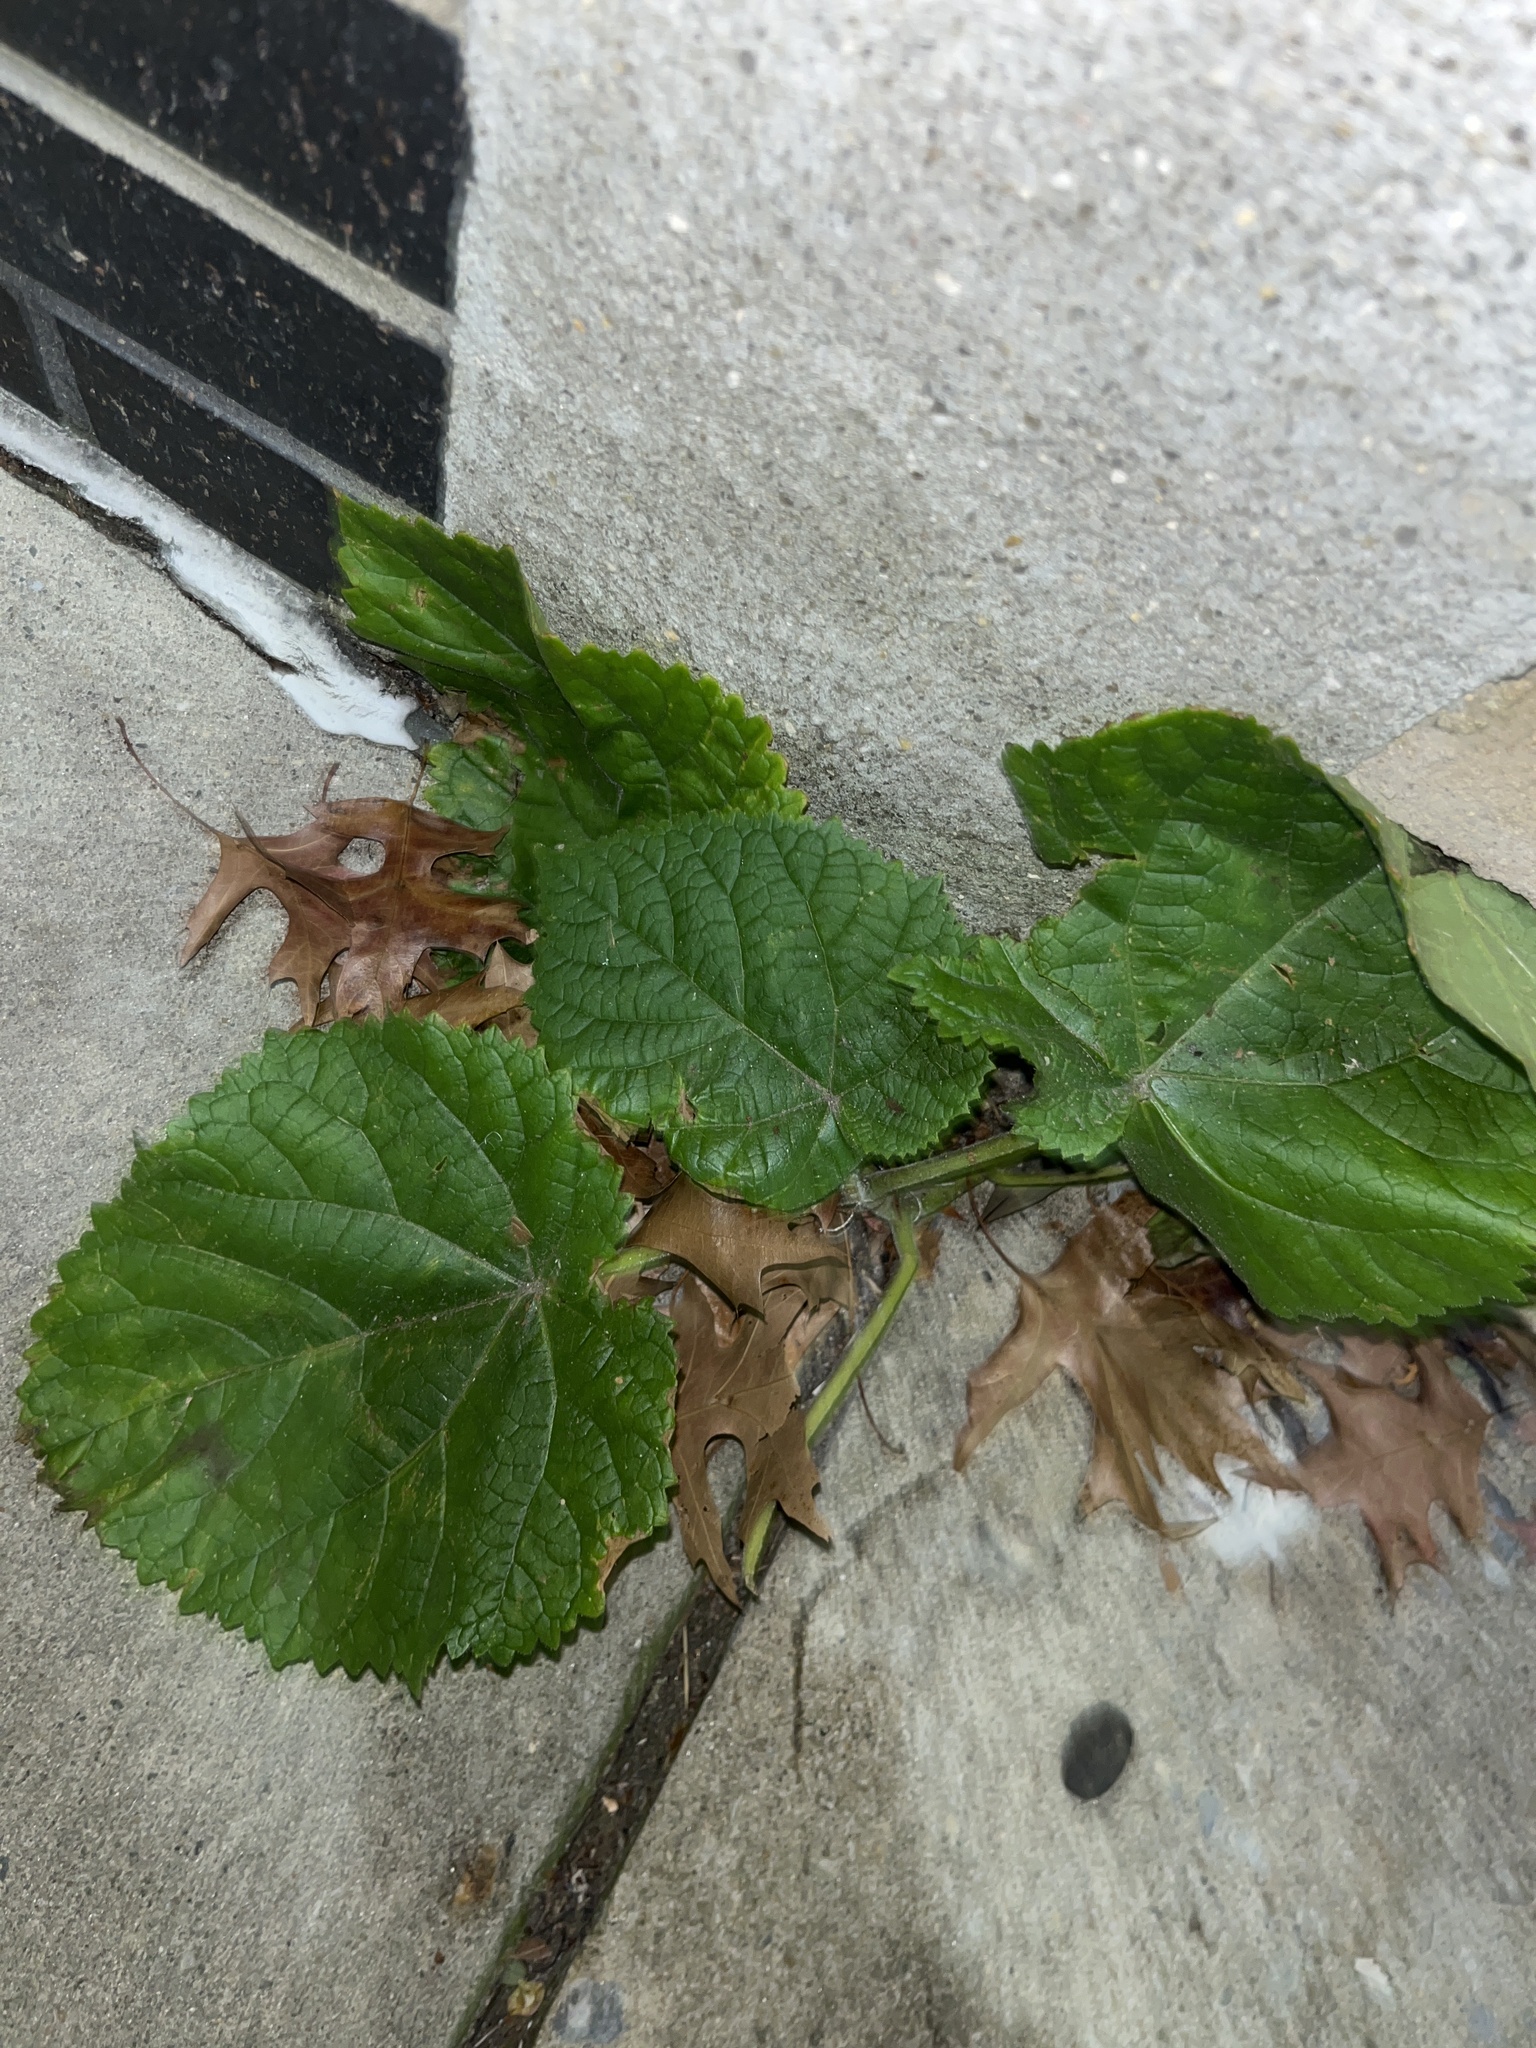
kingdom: Plantae
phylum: Tracheophyta
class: Magnoliopsida
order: Lamiales
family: Paulowniaceae
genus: Paulownia
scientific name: Paulownia tomentosa
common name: Foxglove-tree
